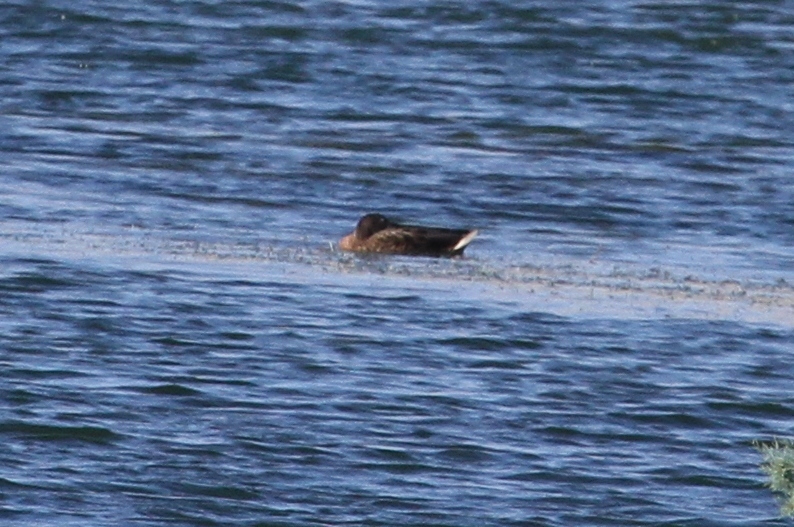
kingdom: Animalia
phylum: Chordata
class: Aves
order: Anseriformes
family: Anatidae
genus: Aythya
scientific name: Aythya nyroca
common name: Ferruginous duck
